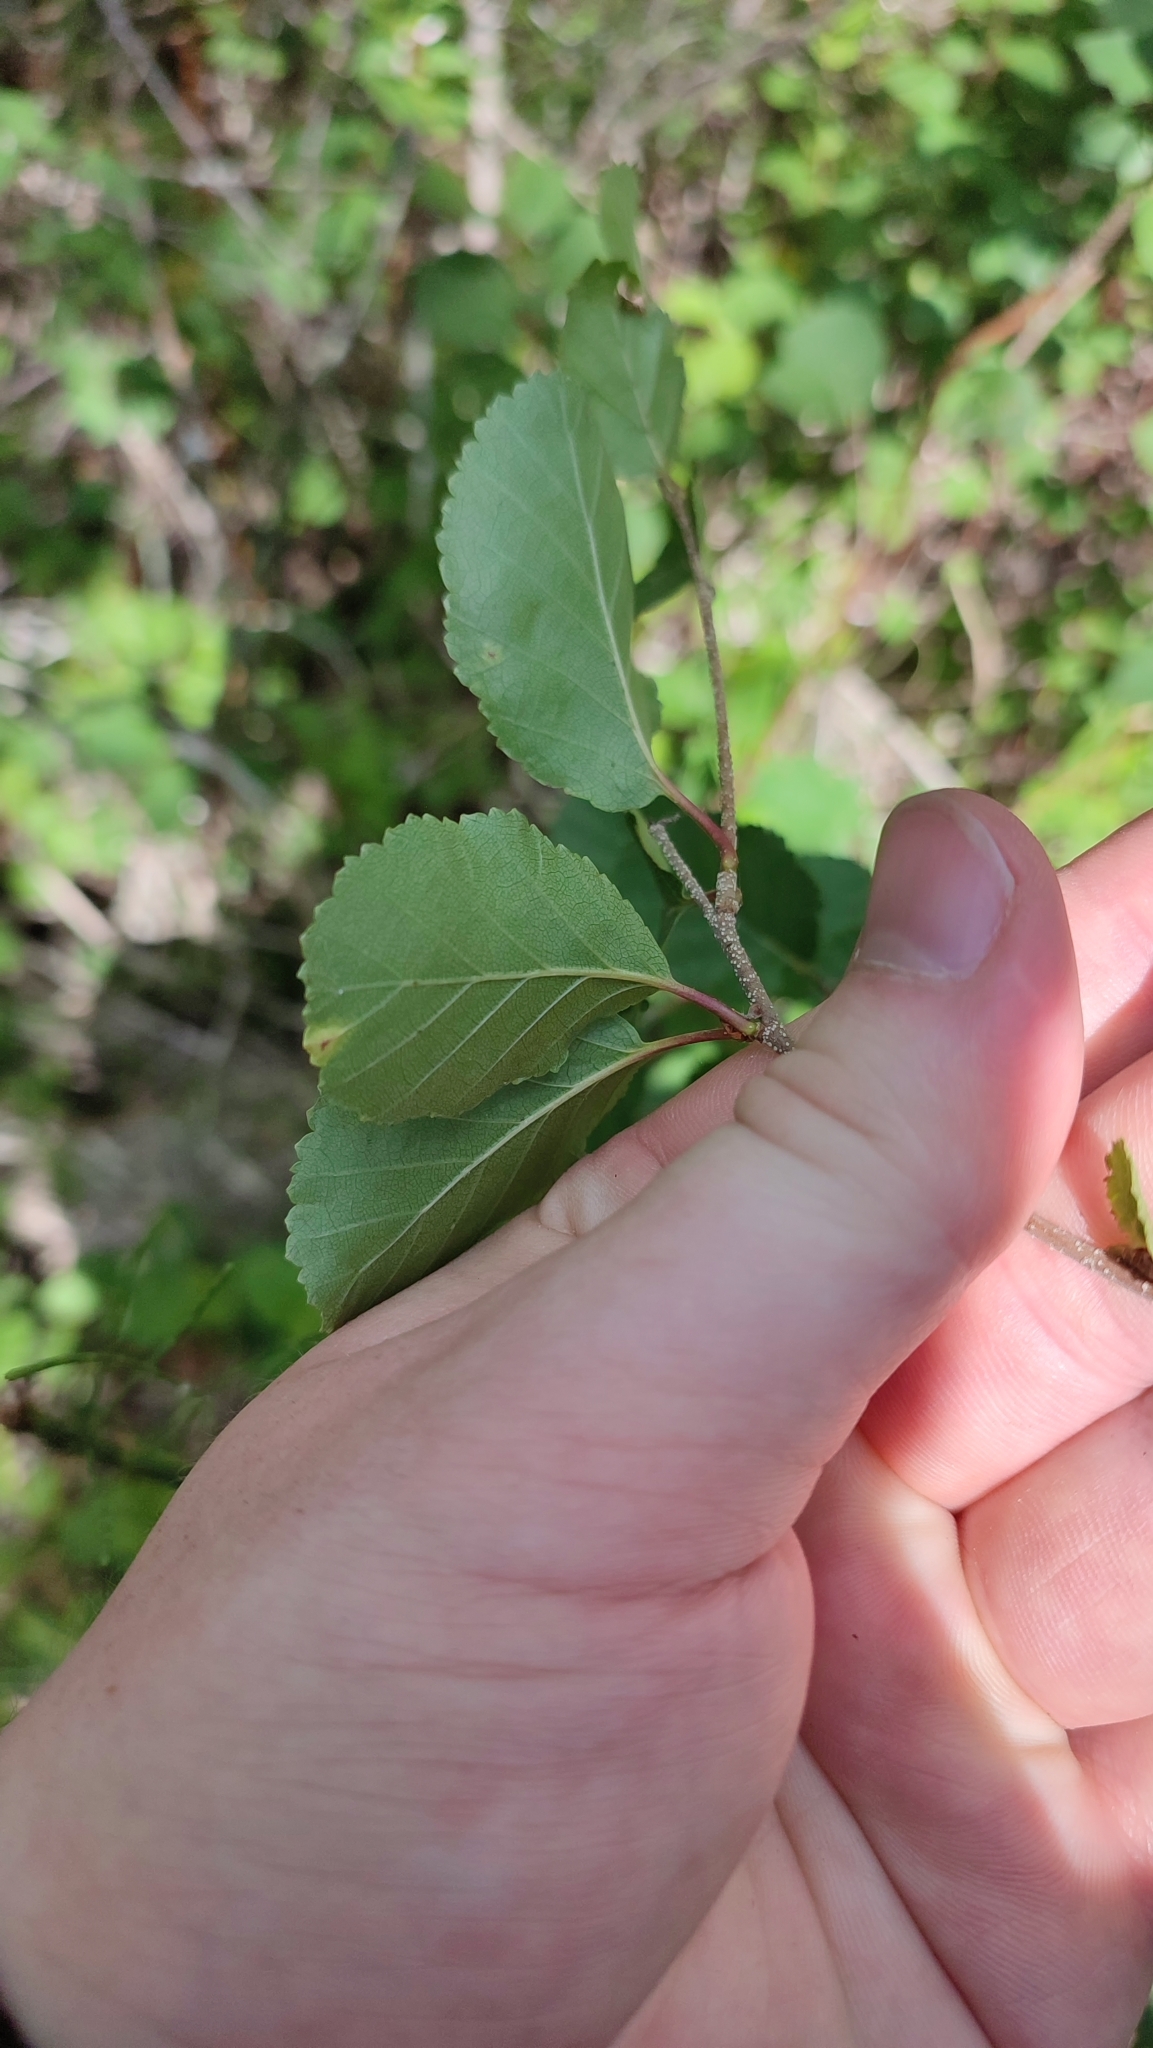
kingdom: Plantae
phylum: Tracheophyta
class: Magnoliopsida
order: Fagales
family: Betulaceae
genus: Betula
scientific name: Betula humilis
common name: Shrubby birch
